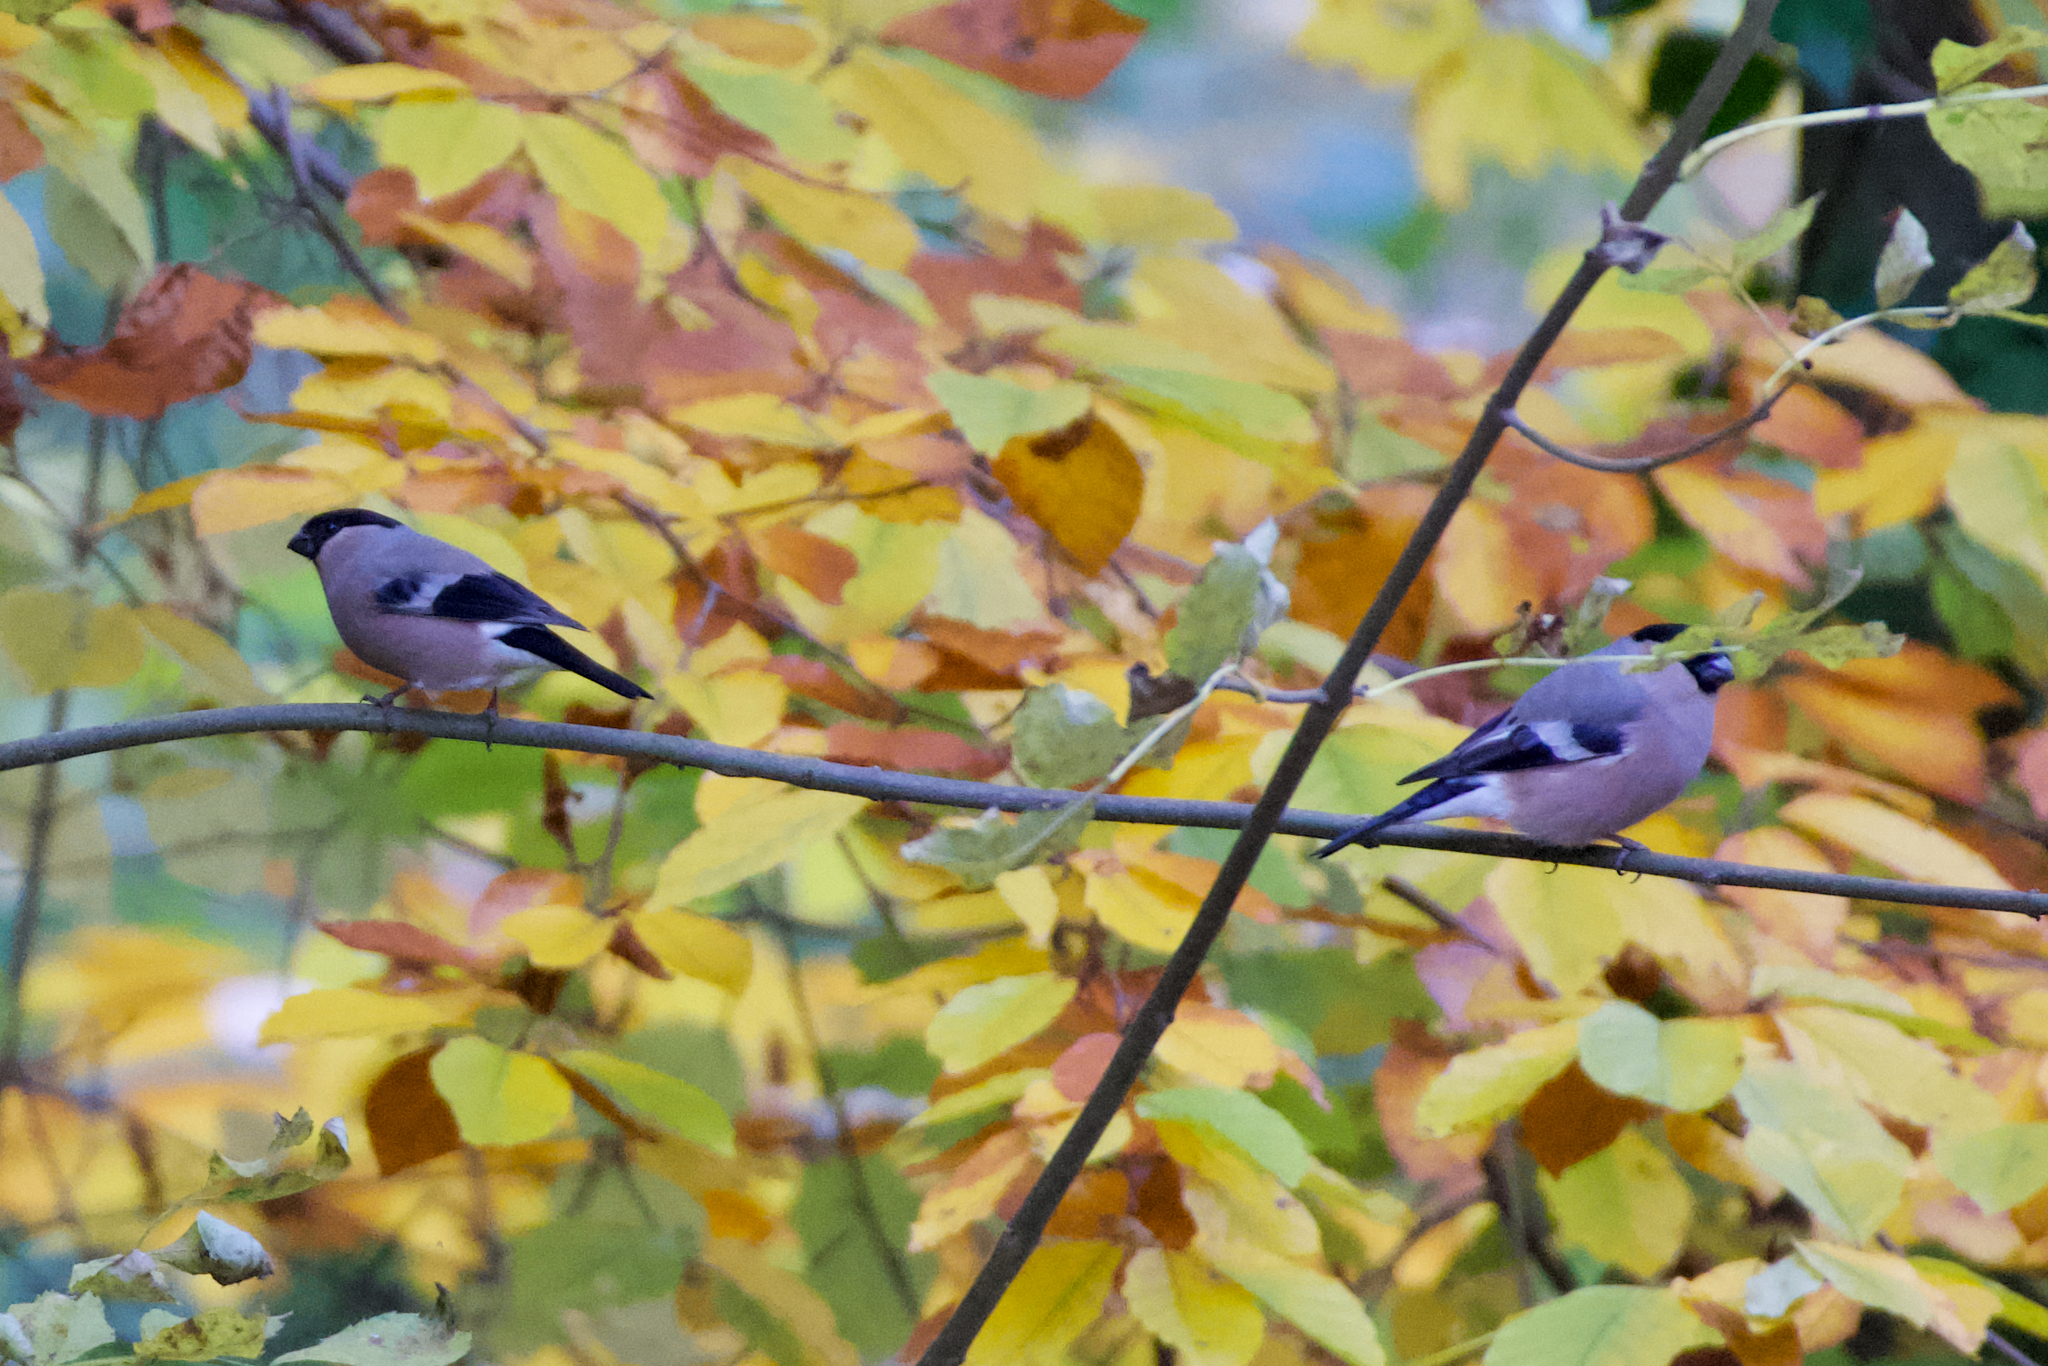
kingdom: Animalia
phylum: Chordata
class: Aves
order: Passeriformes
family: Fringillidae
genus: Pyrrhula
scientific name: Pyrrhula pyrrhula
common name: Eurasian bullfinch
